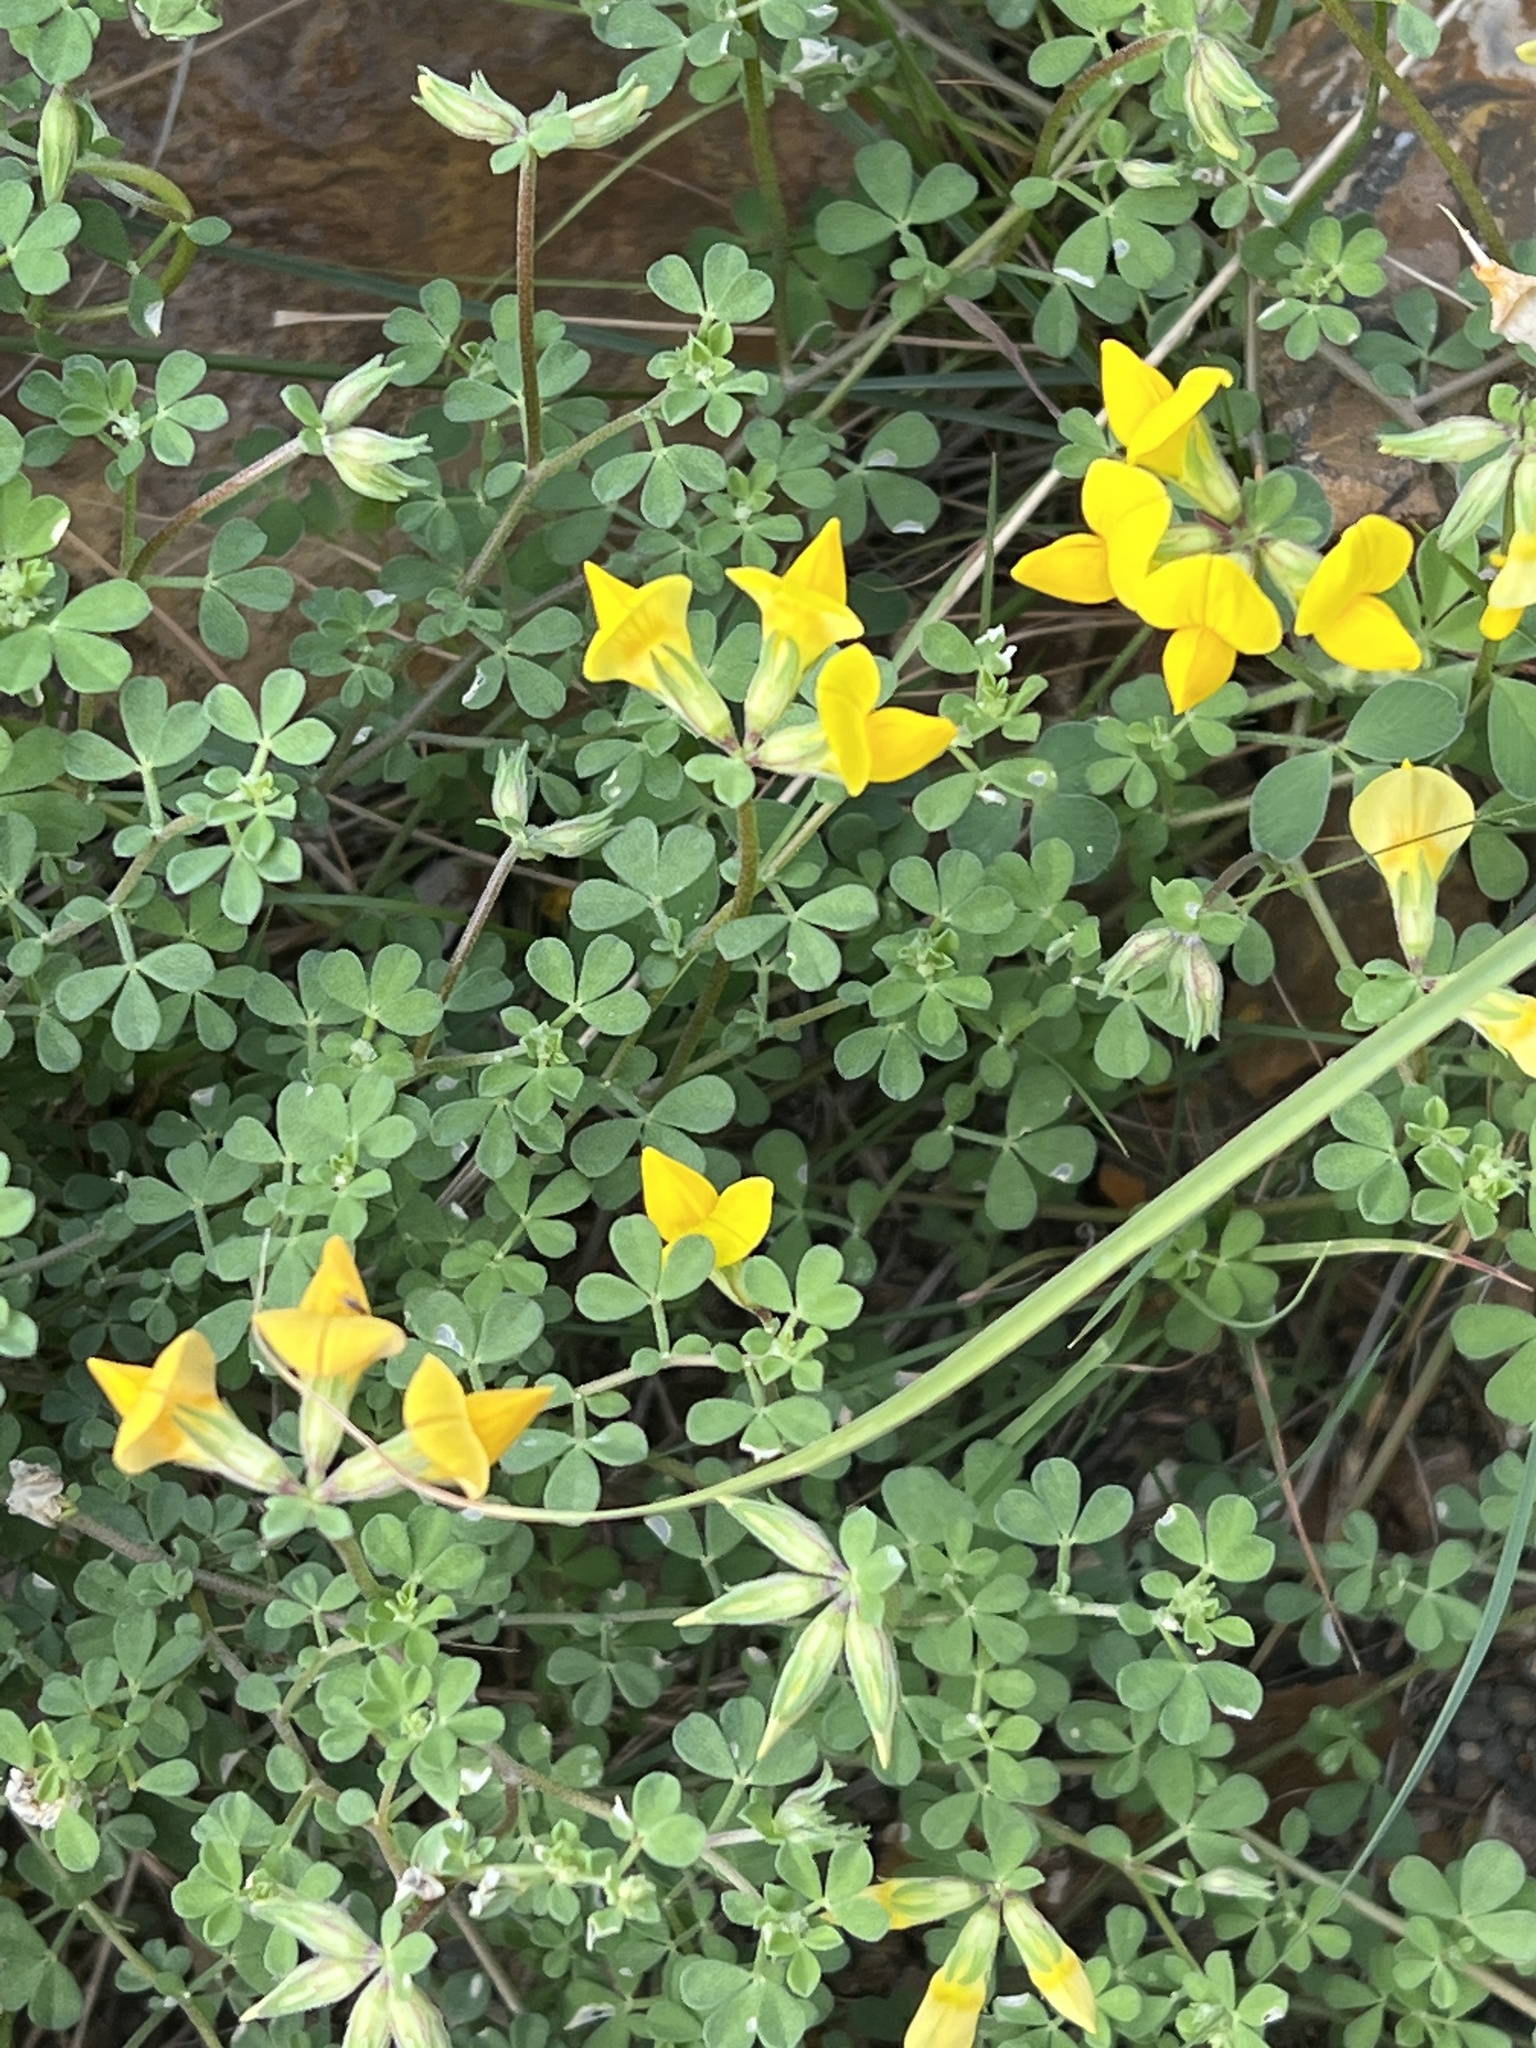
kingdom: Plantae
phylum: Tracheophyta
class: Magnoliopsida
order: Fabales
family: Fabaceae
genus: Lotus
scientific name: Lotus emeroides
